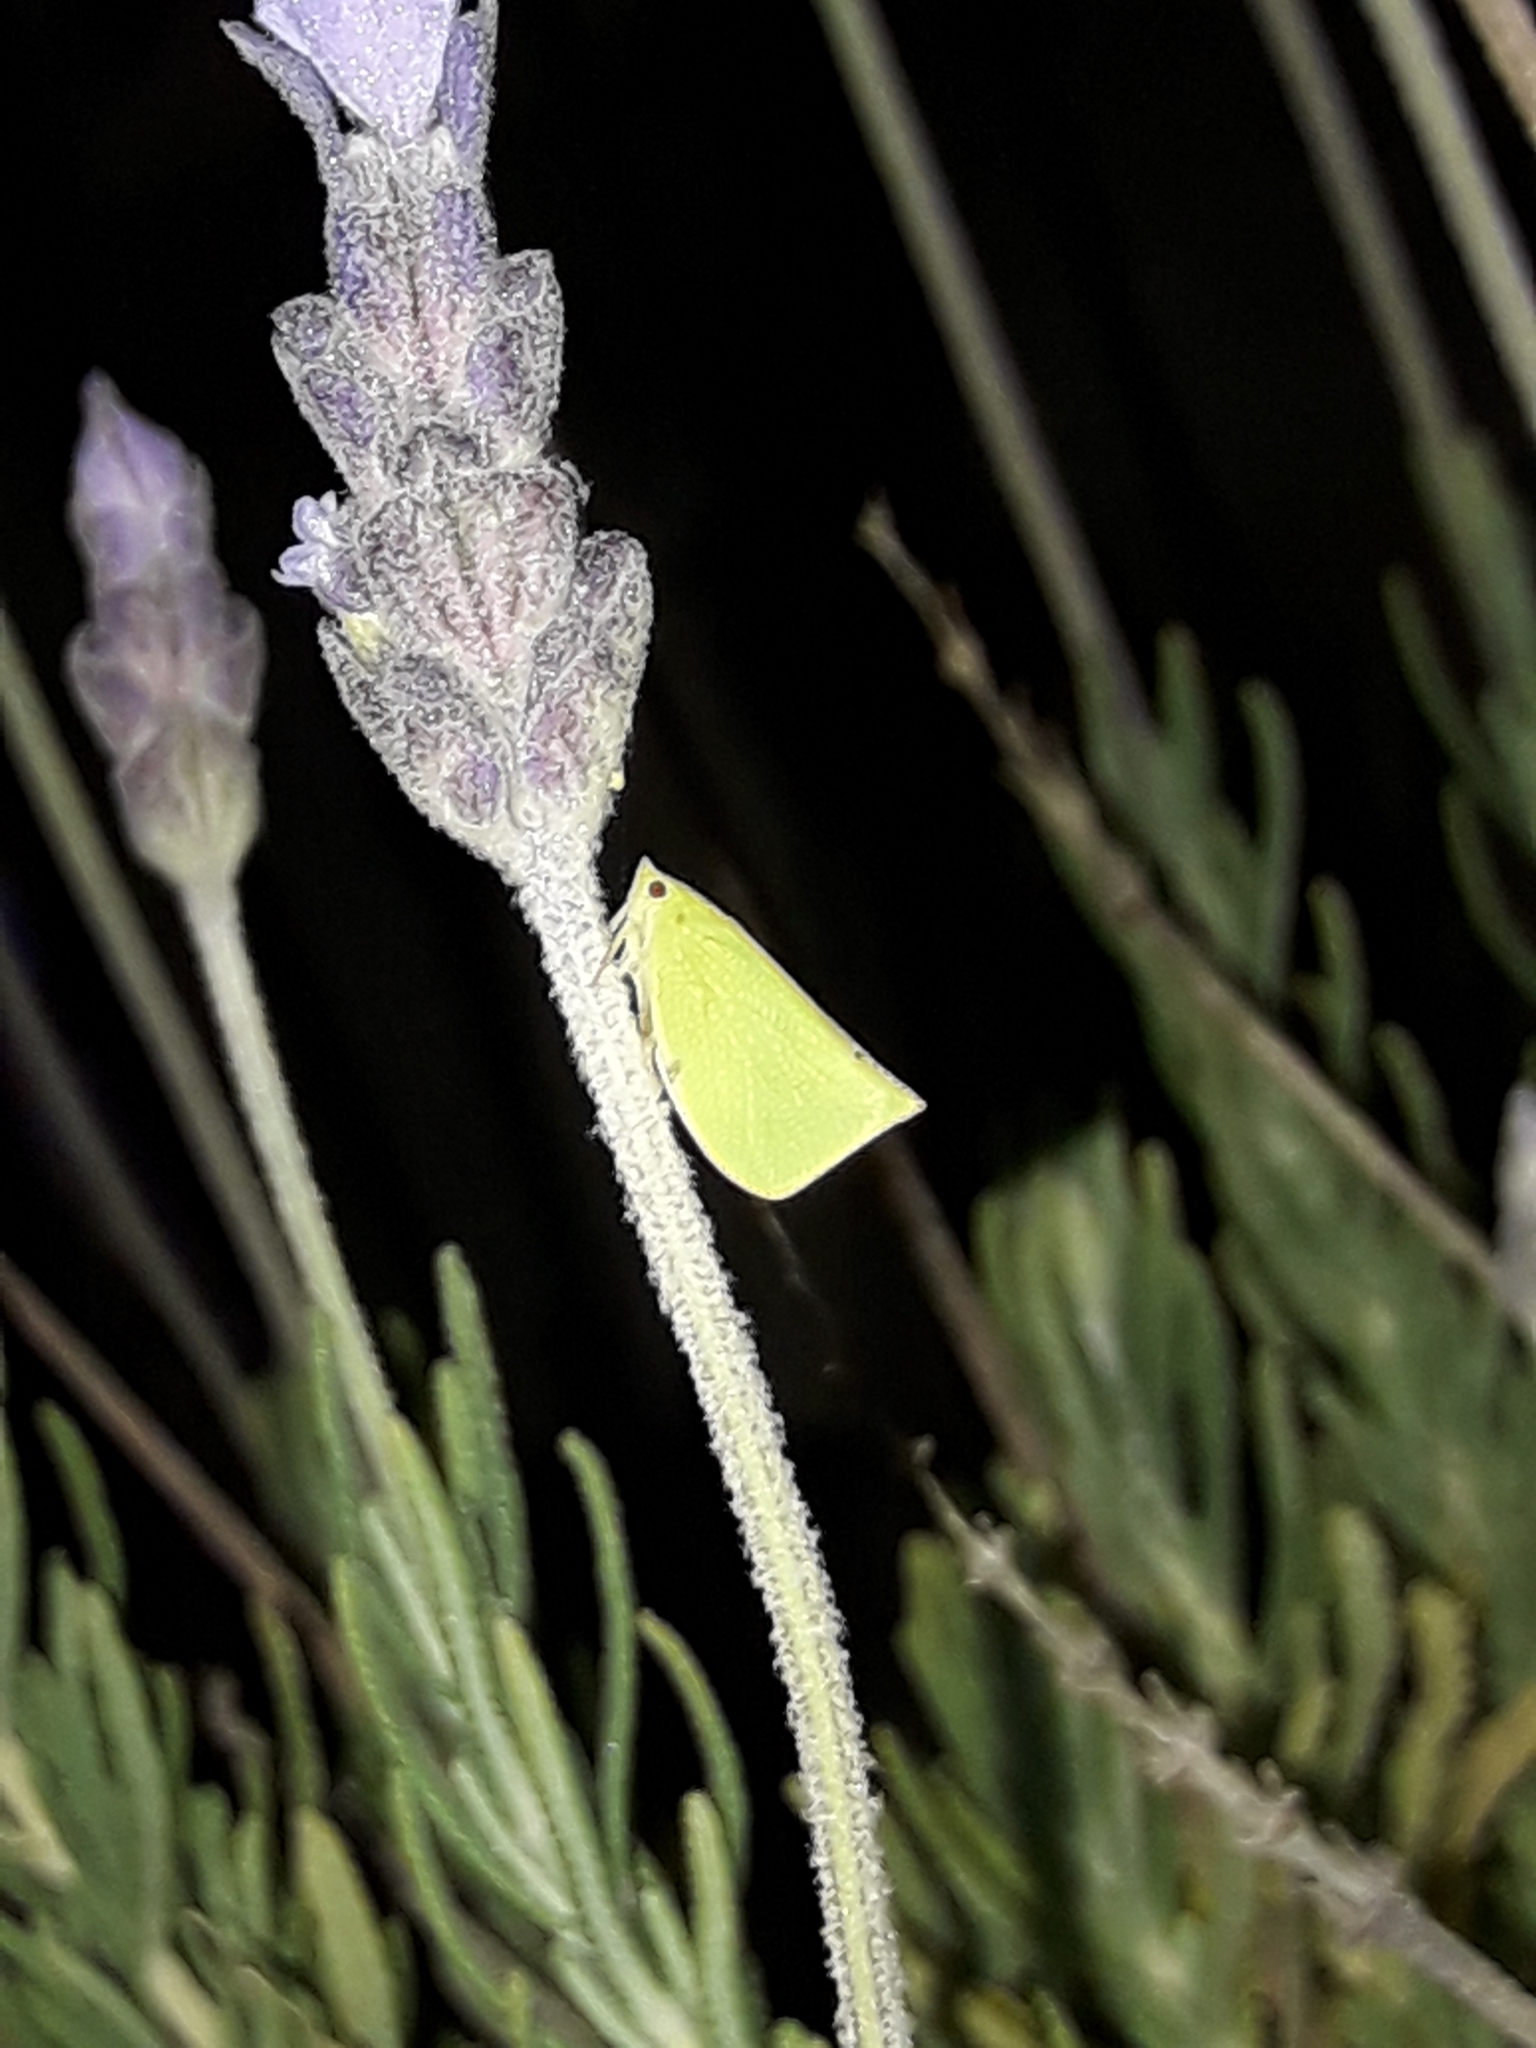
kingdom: Animalia
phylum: Arthropoda
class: Insecta
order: Hemiptera
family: Flatidae
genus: Siphanta
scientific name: Siphanta acuta
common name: Torpedo bug
